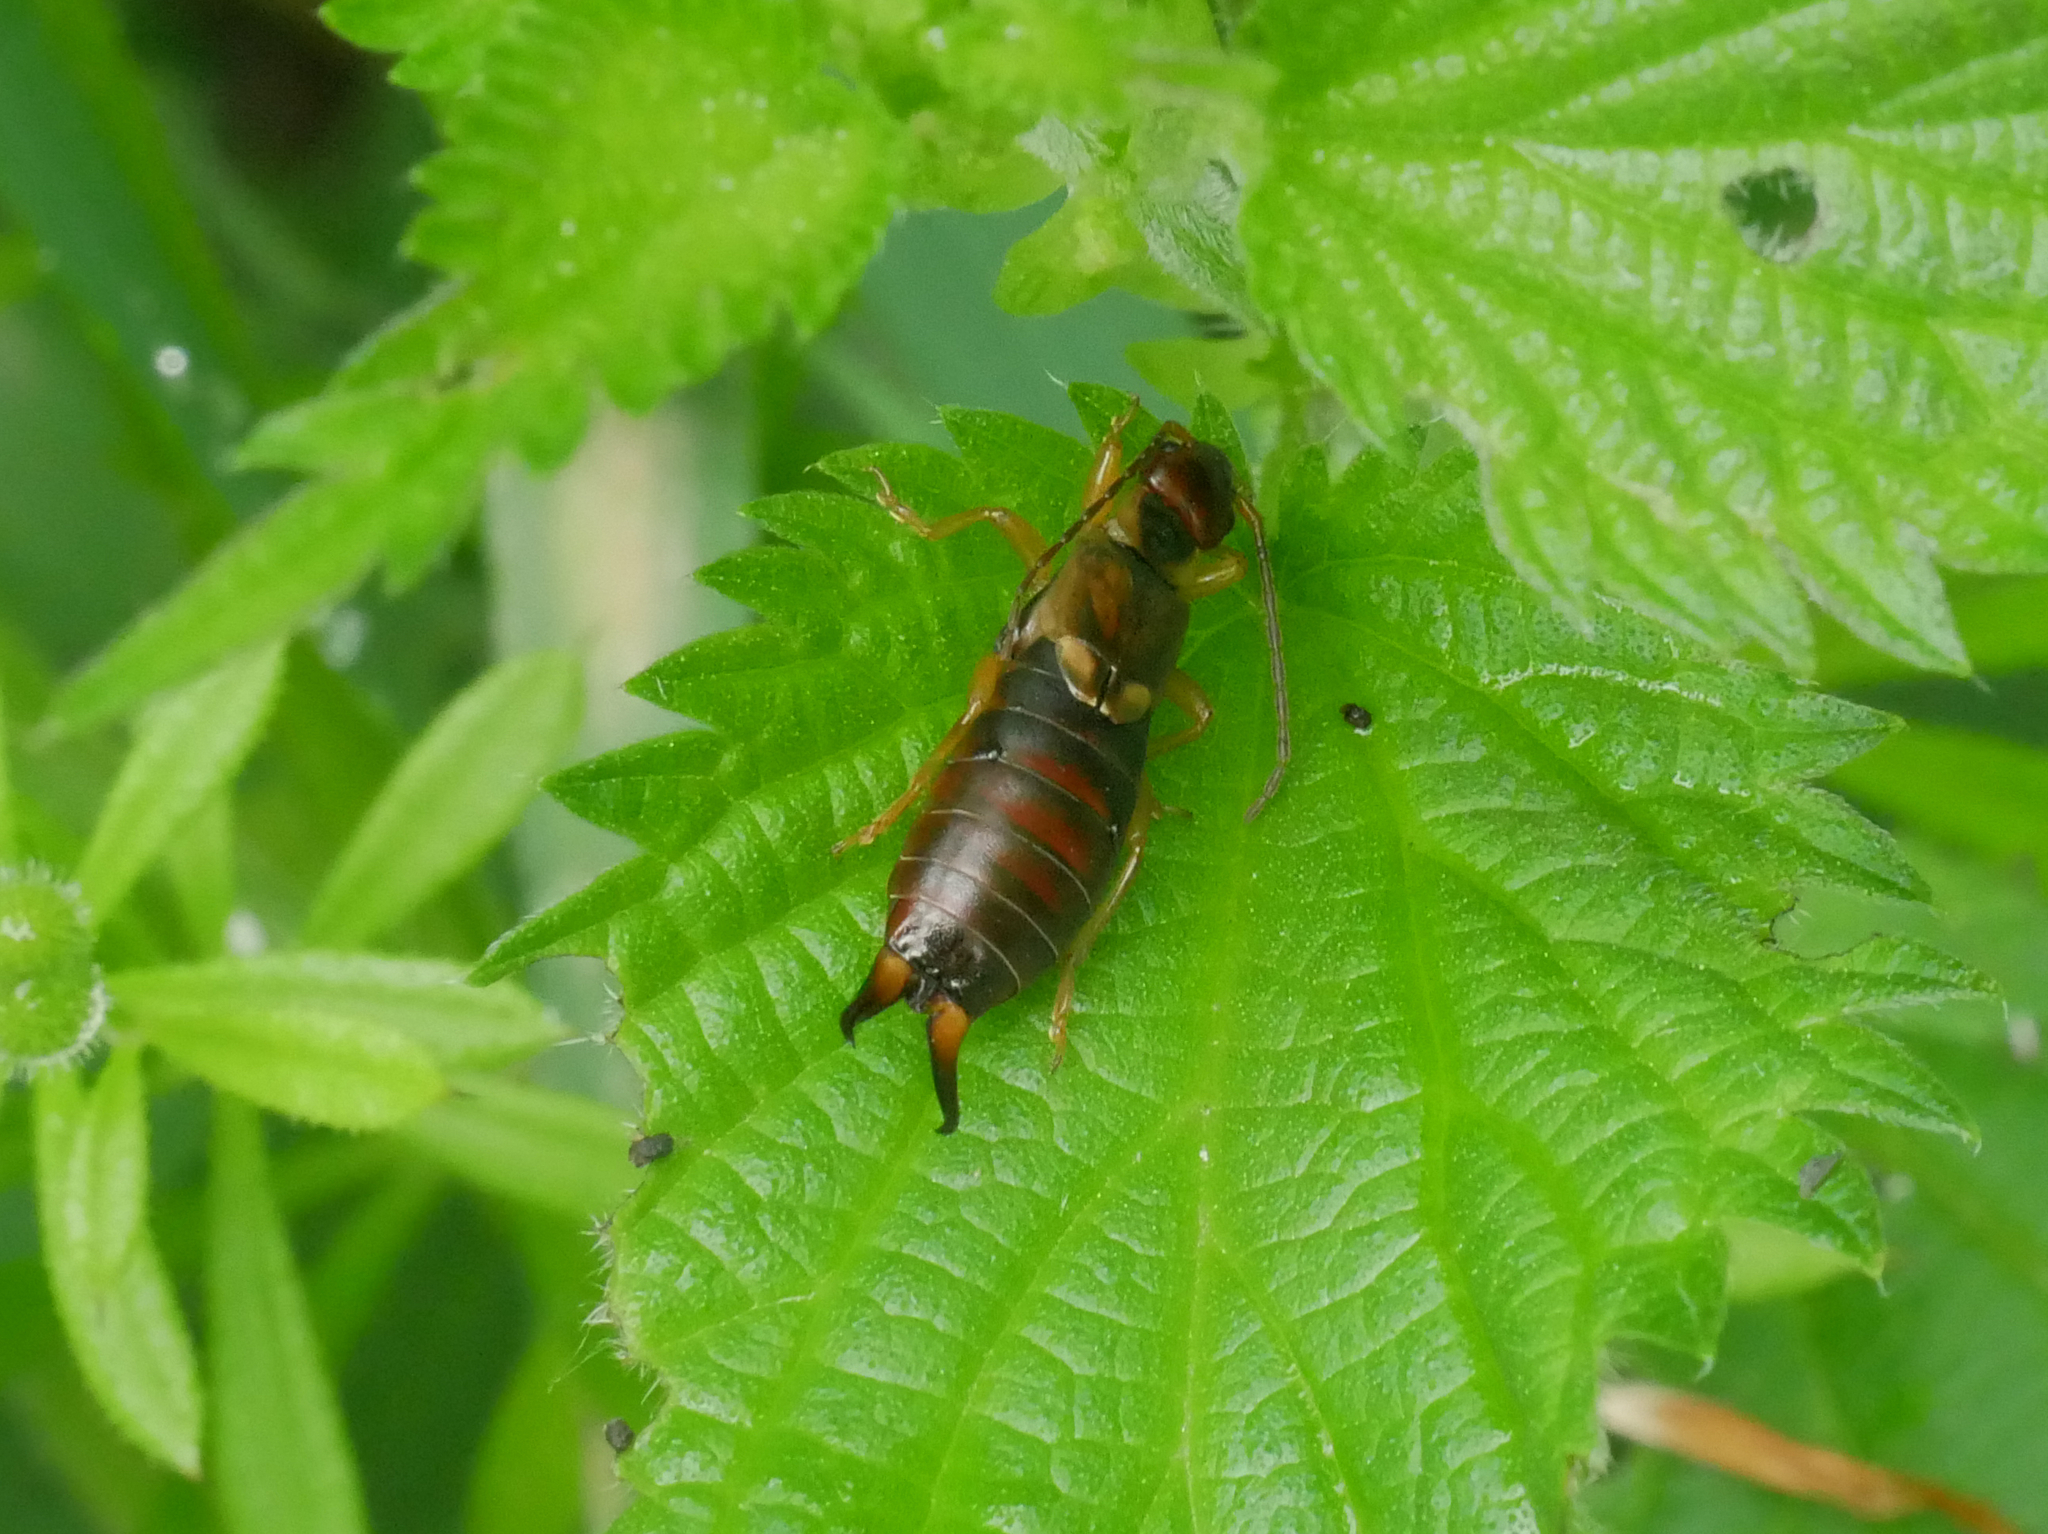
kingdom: Animalia
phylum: Arthropoda
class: Insecta
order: Dermaptera
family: Forficulidae
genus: Forficula
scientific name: Forficula
